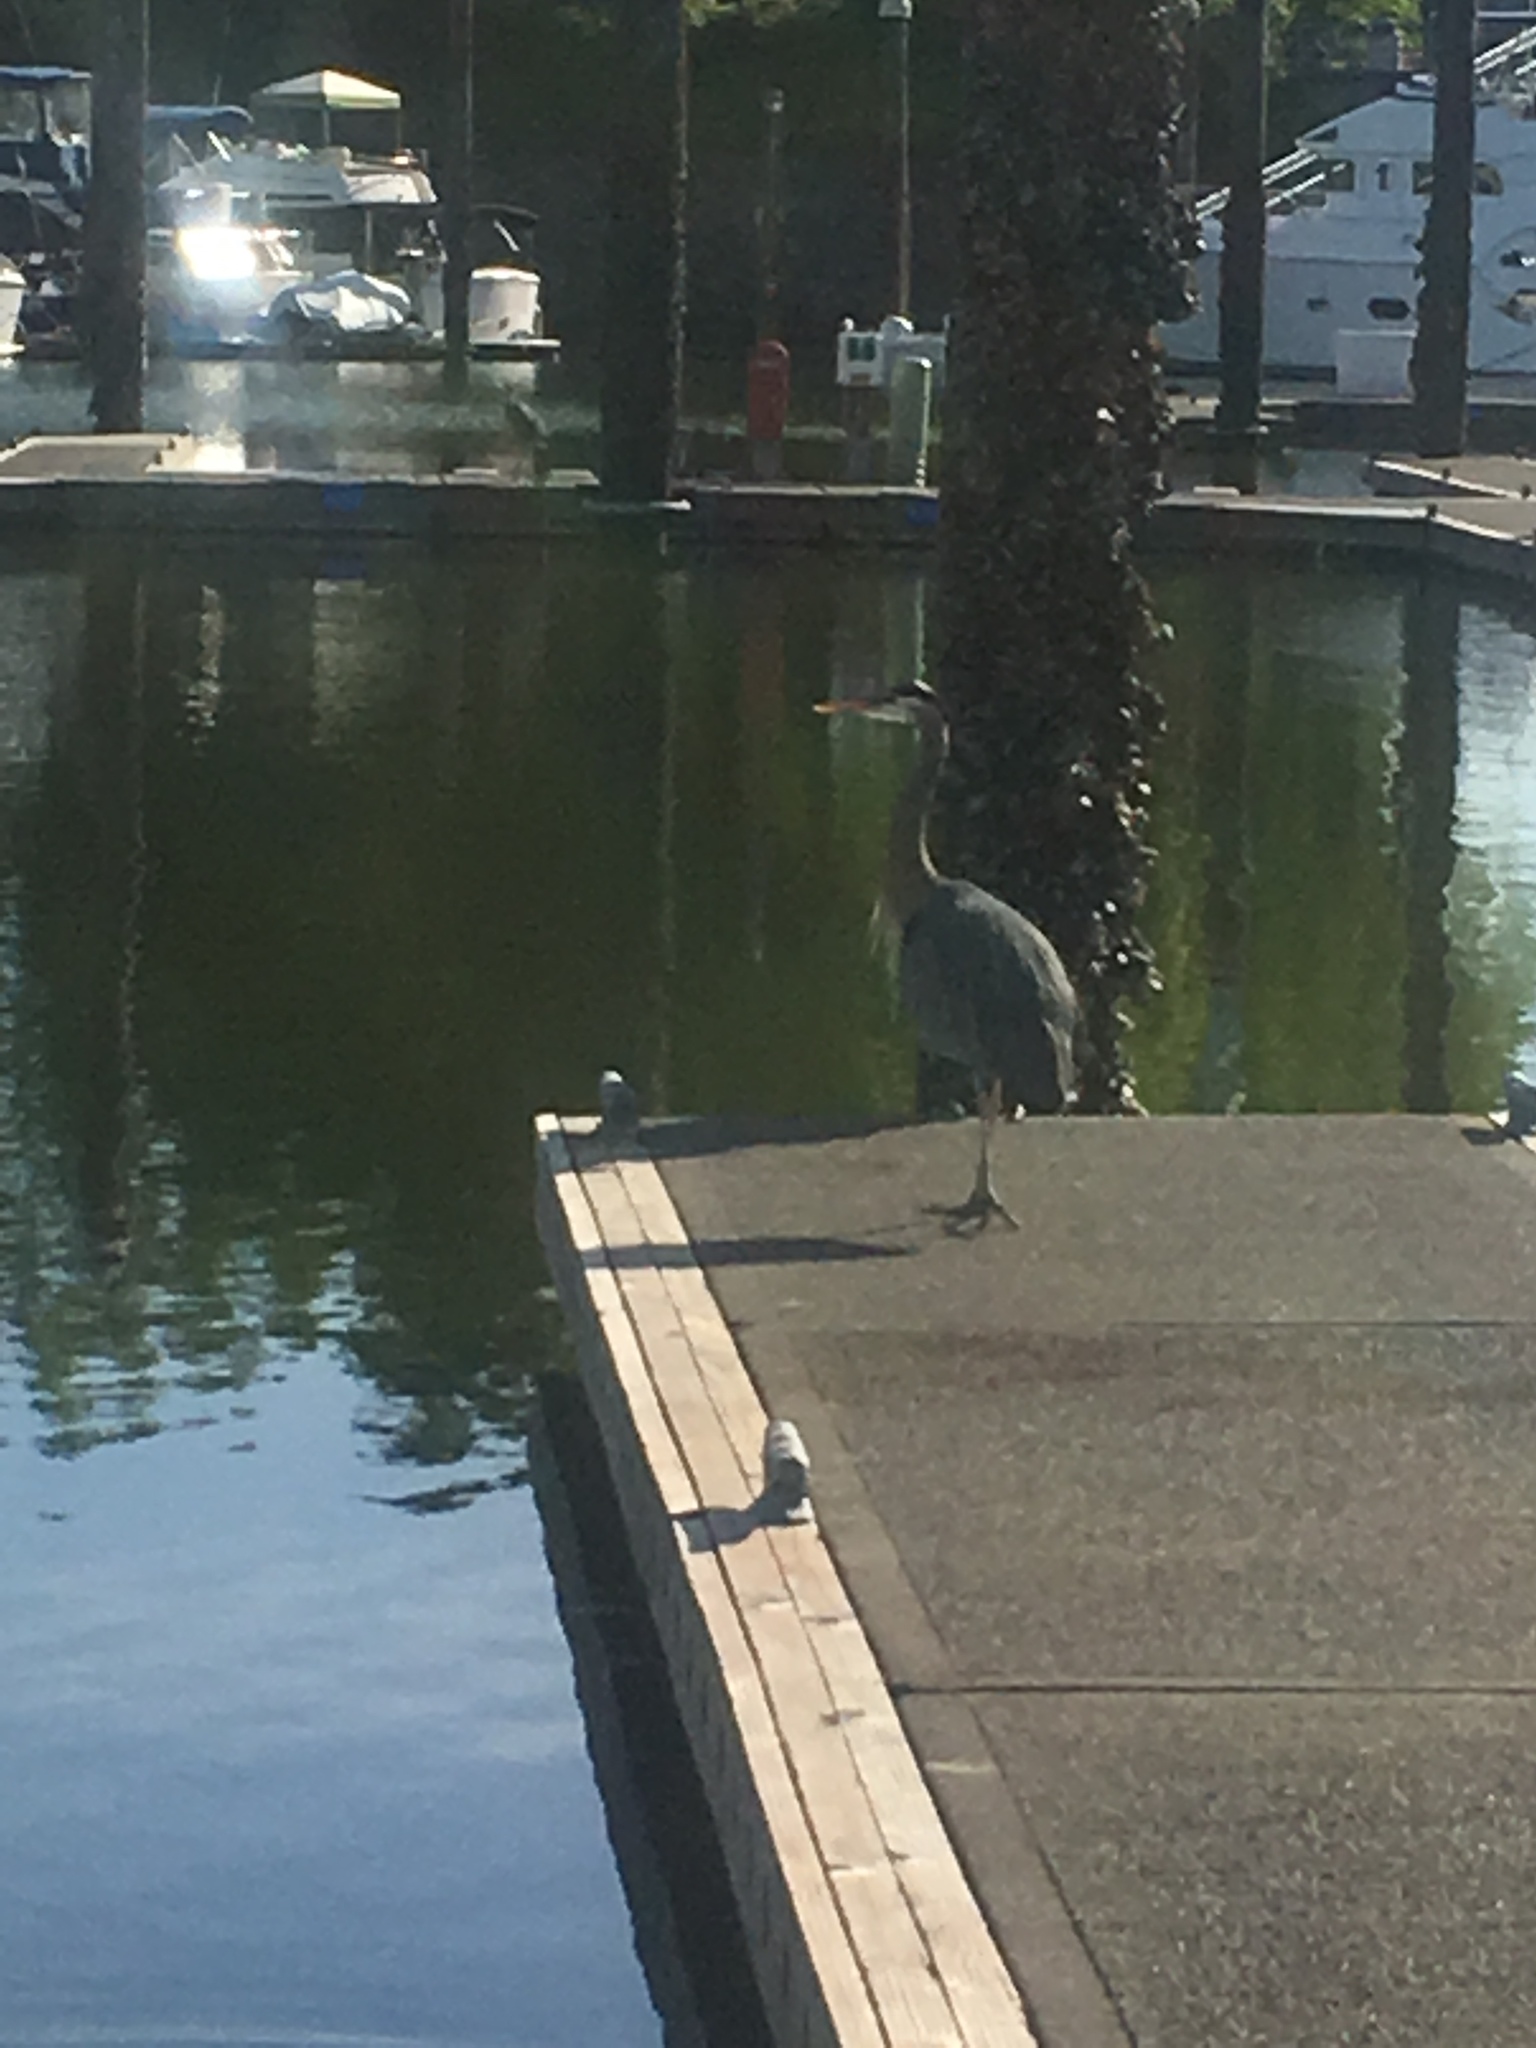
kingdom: Animalia
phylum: Chordata
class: Aves
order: Pelecaniformes
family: Ardeidae
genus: Ardea
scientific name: Ardea herodias
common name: Great blue heron
